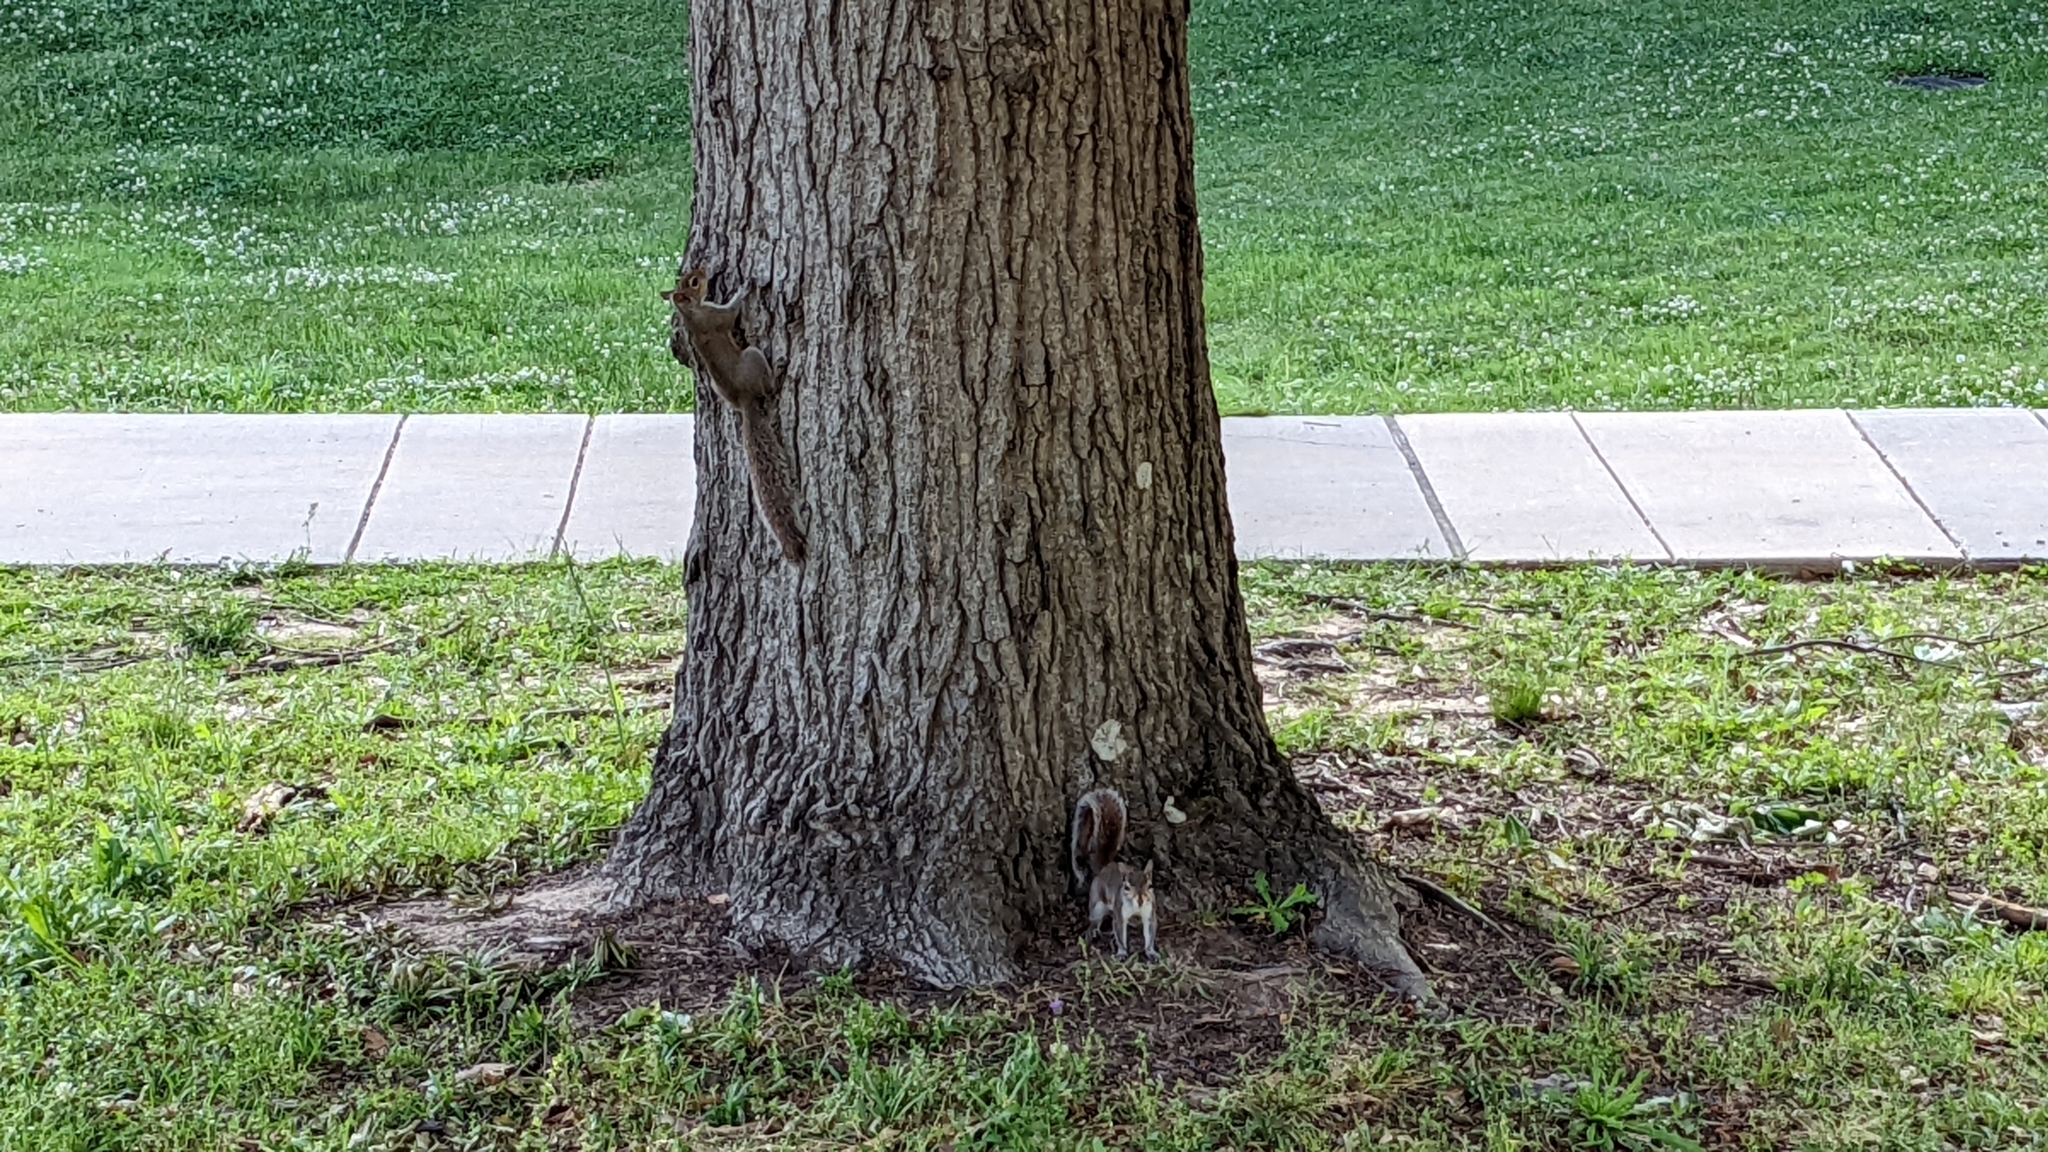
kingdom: Animalia
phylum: Chordata
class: Mammalia
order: Rodentia
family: Sciuridae
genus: Sciurus
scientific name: Sciurus carolinensis
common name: Eastern gray squirrel
